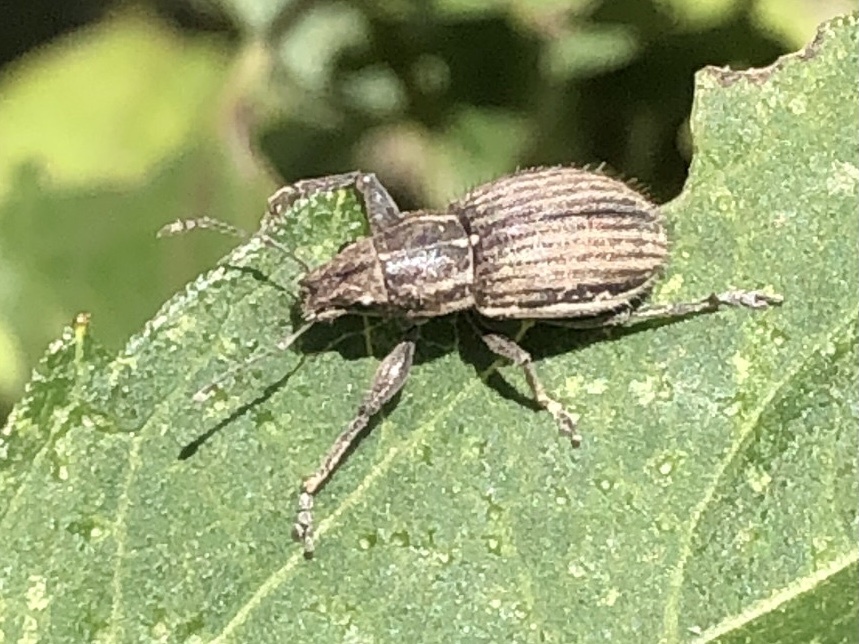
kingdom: Animalia
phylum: Arthropoda
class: Insecta
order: Coleoptera
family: Curculionidae
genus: Naupactus
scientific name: Naupactus leucoloma
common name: Whitefringed beetle
